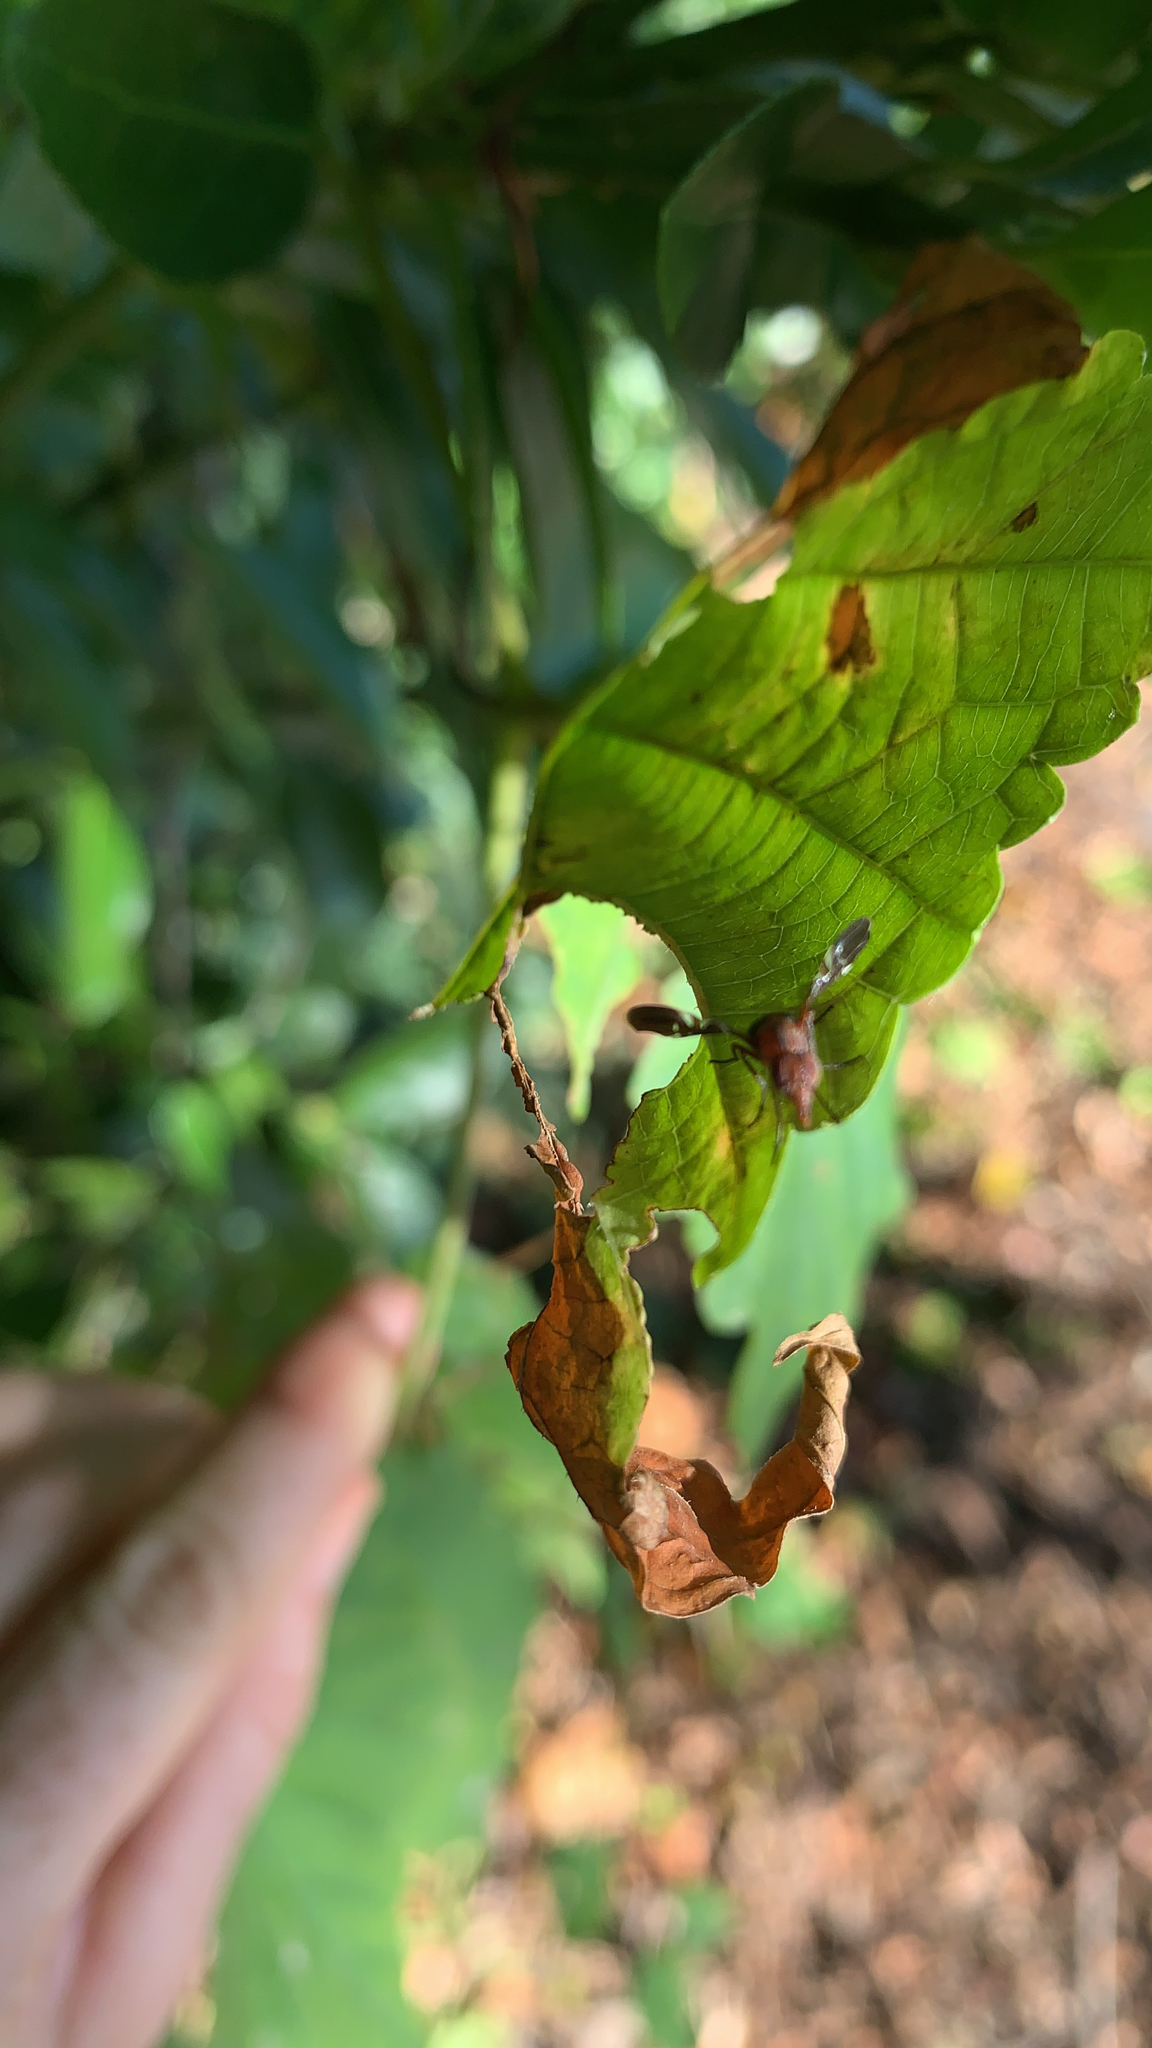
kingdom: Animalia
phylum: Arthropoda
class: Insecta
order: Diptera
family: Ulidiidae
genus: Delphinia
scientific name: Delphinia picta
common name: Common picture-winged fly
